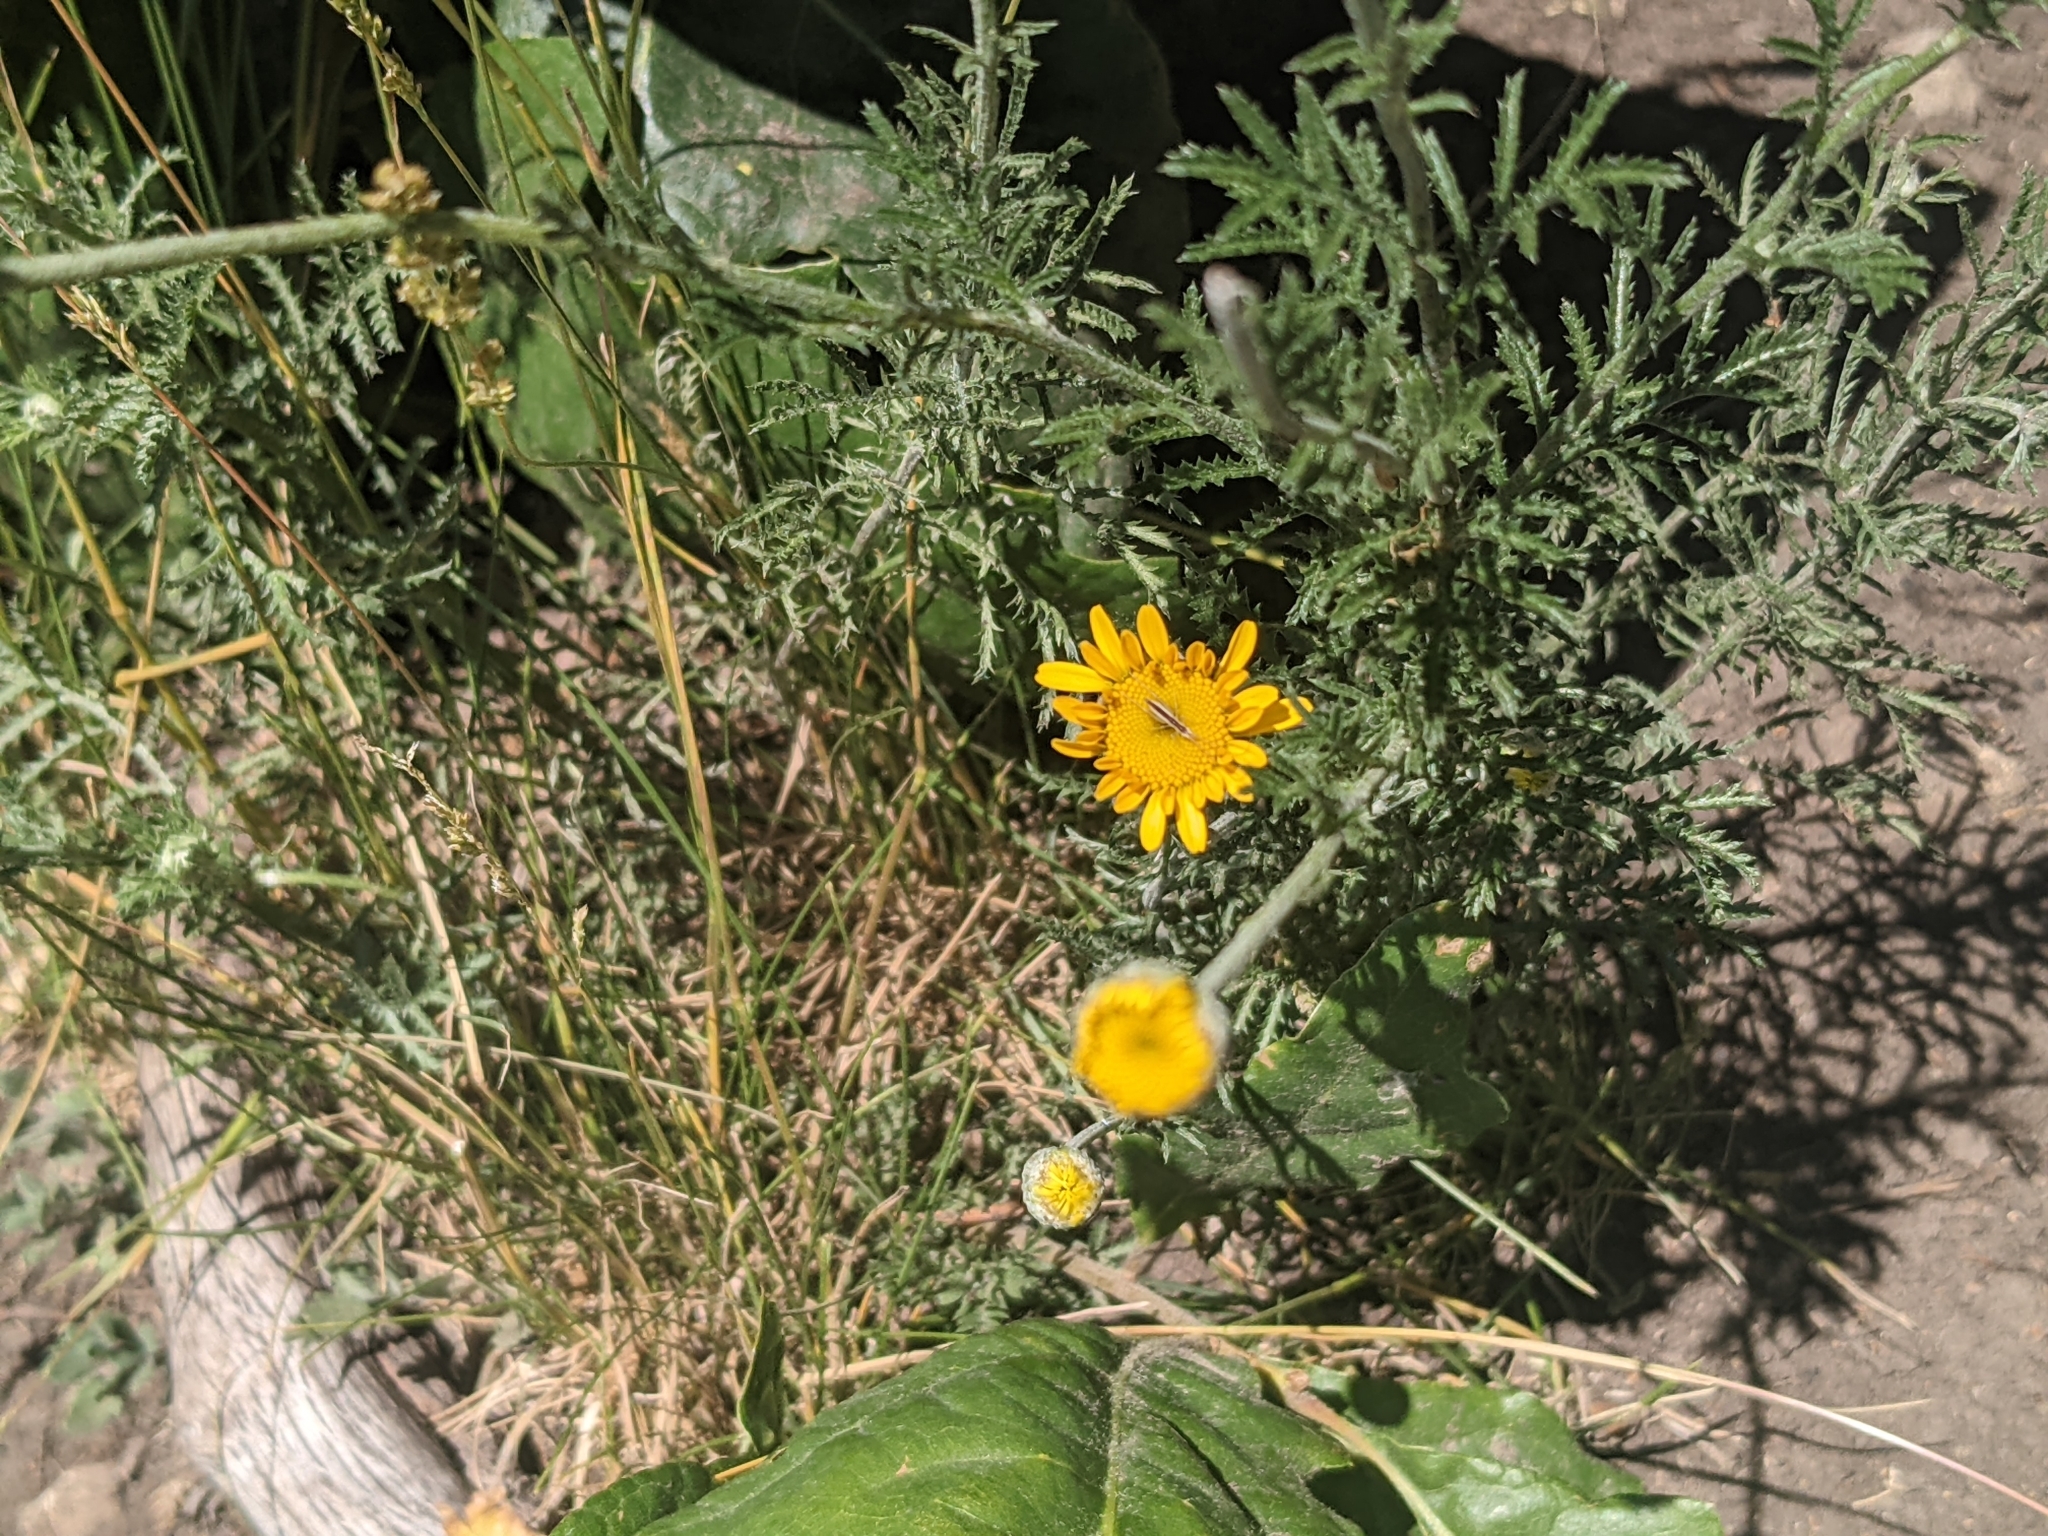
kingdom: Plantae
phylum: Tracheophyta
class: Magnoliopsida
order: Asterales
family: Asteraceae
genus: Cota
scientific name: Cota tinctoria
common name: Golden chamomile
